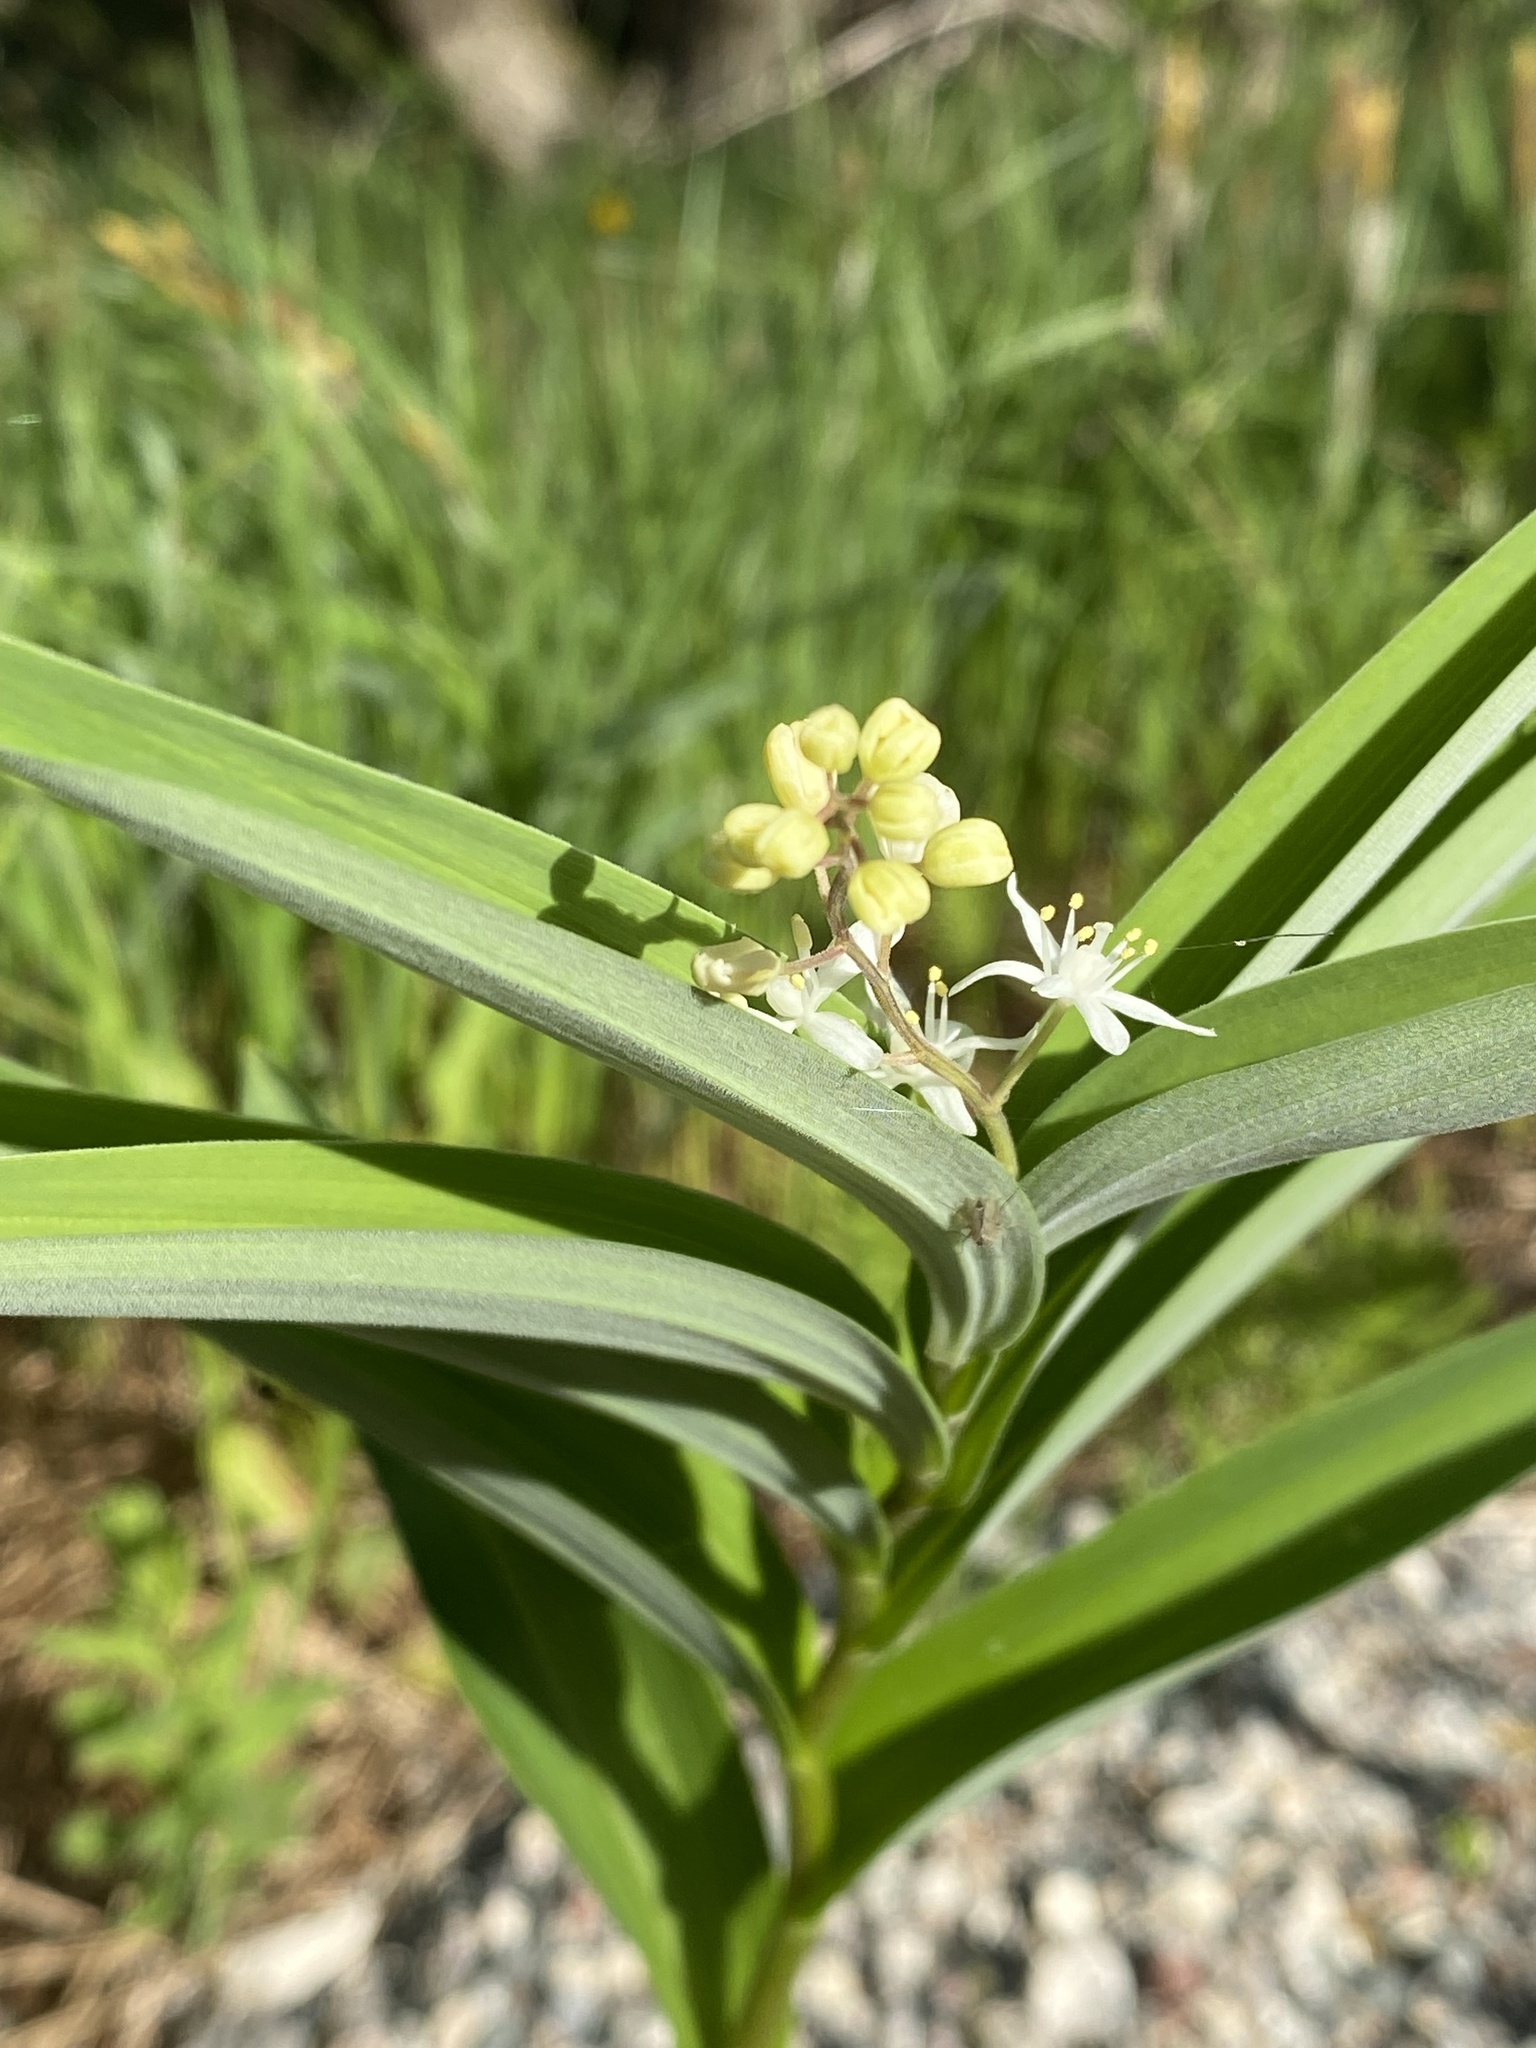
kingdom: Plantae
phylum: Tracheophyta
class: Liliopsida
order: Asparagales
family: Asparagaceae
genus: Maianthemum
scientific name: Maianthemum stellatum
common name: Little false solomon's seal
